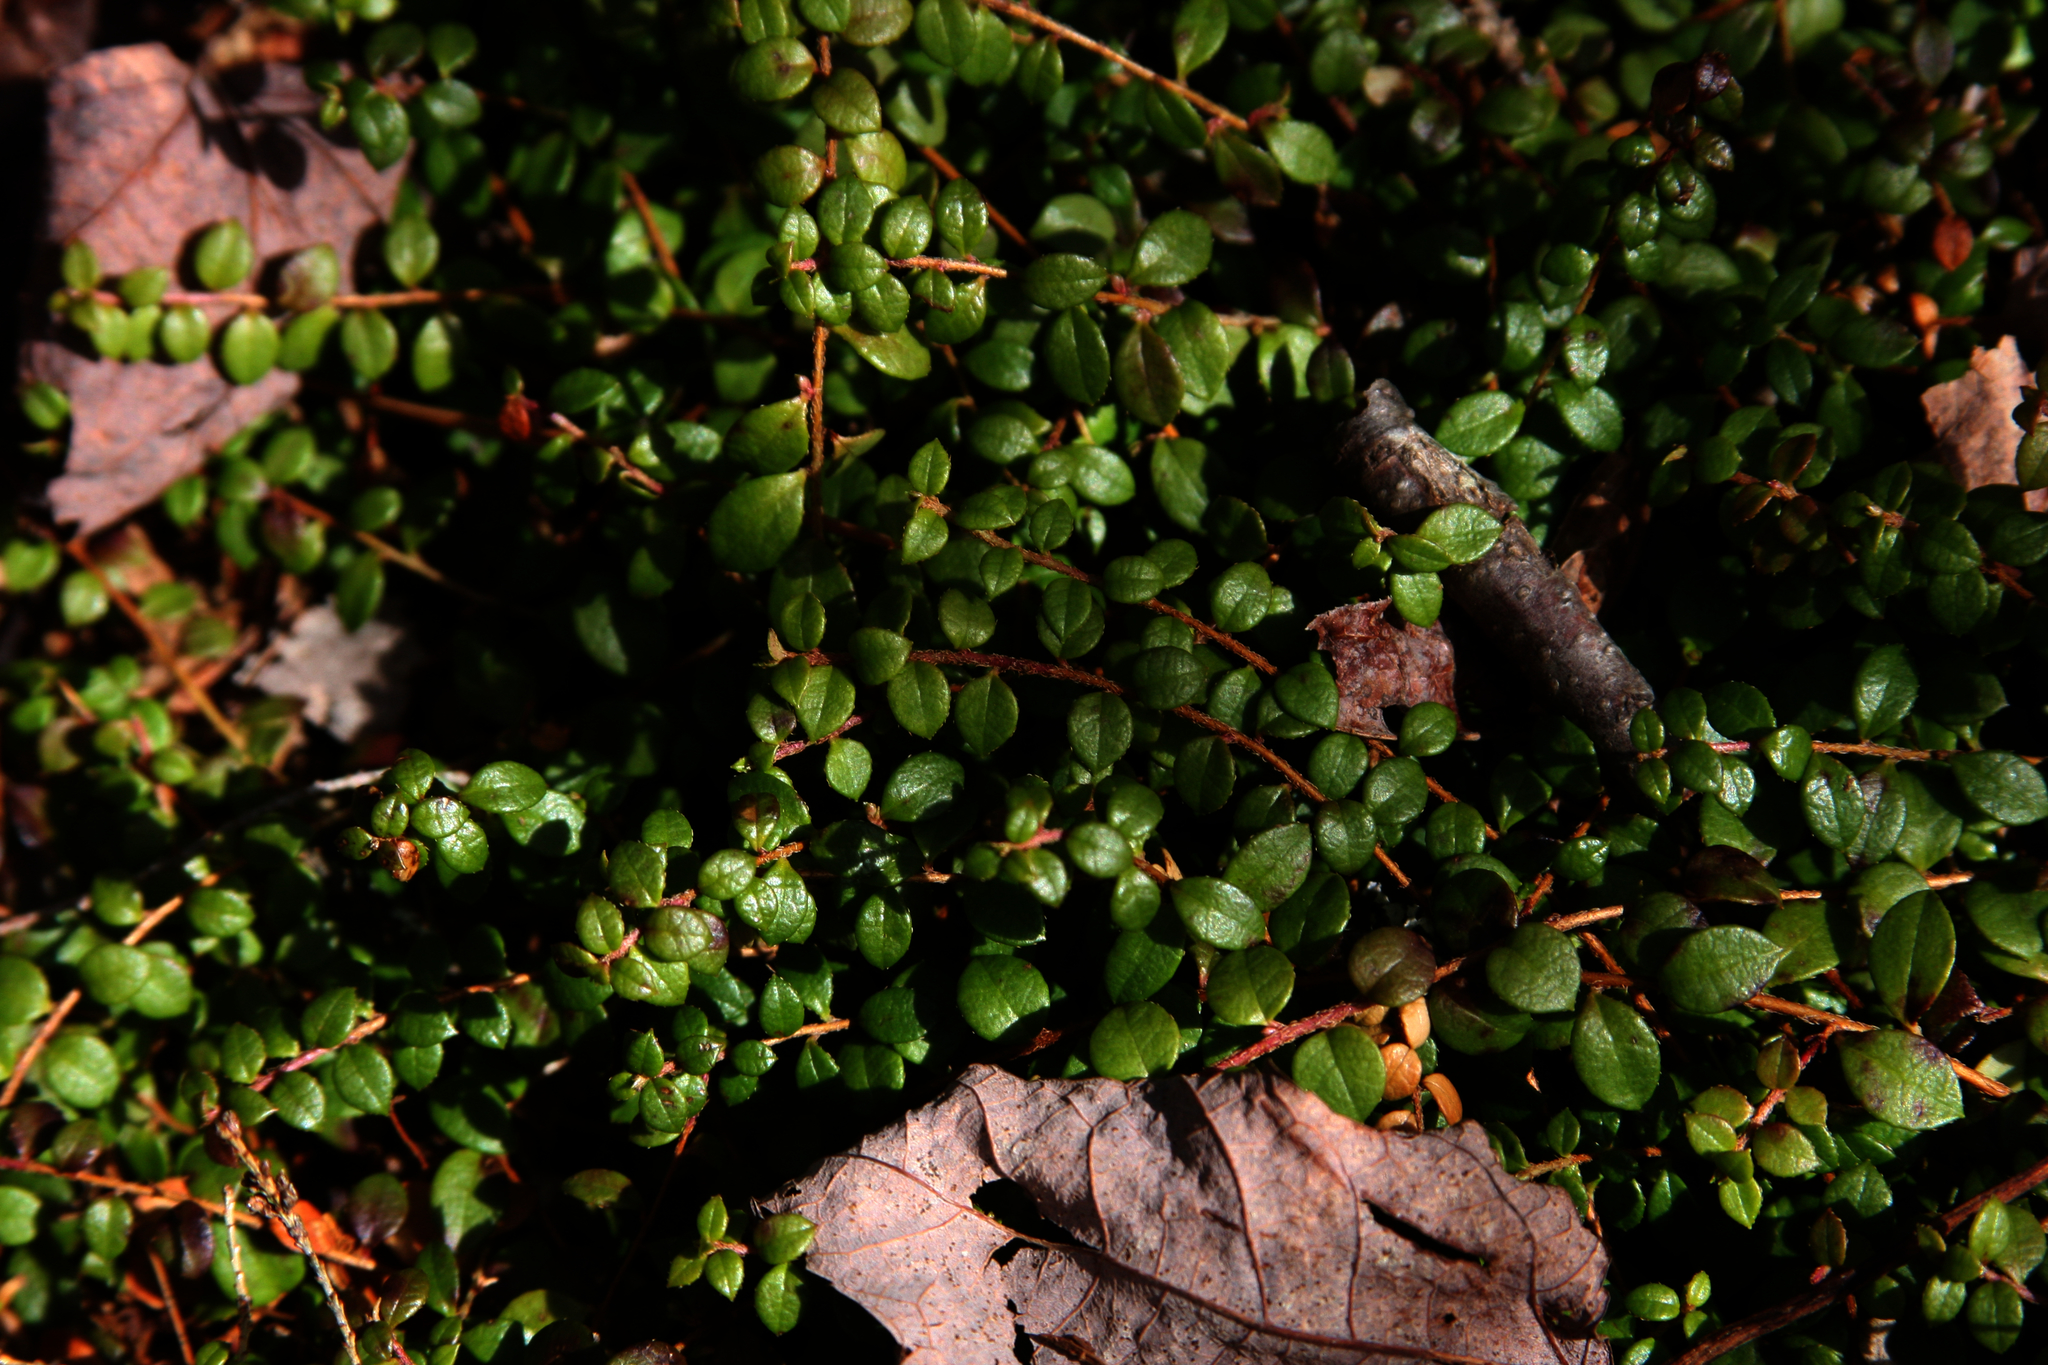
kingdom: Plantae
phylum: Tracheophyta
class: Magnoliopsida
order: Ericales
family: Ericaceae
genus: Gaultheria
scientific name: Gaultheria hispidula
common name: Cancer wintergreen
